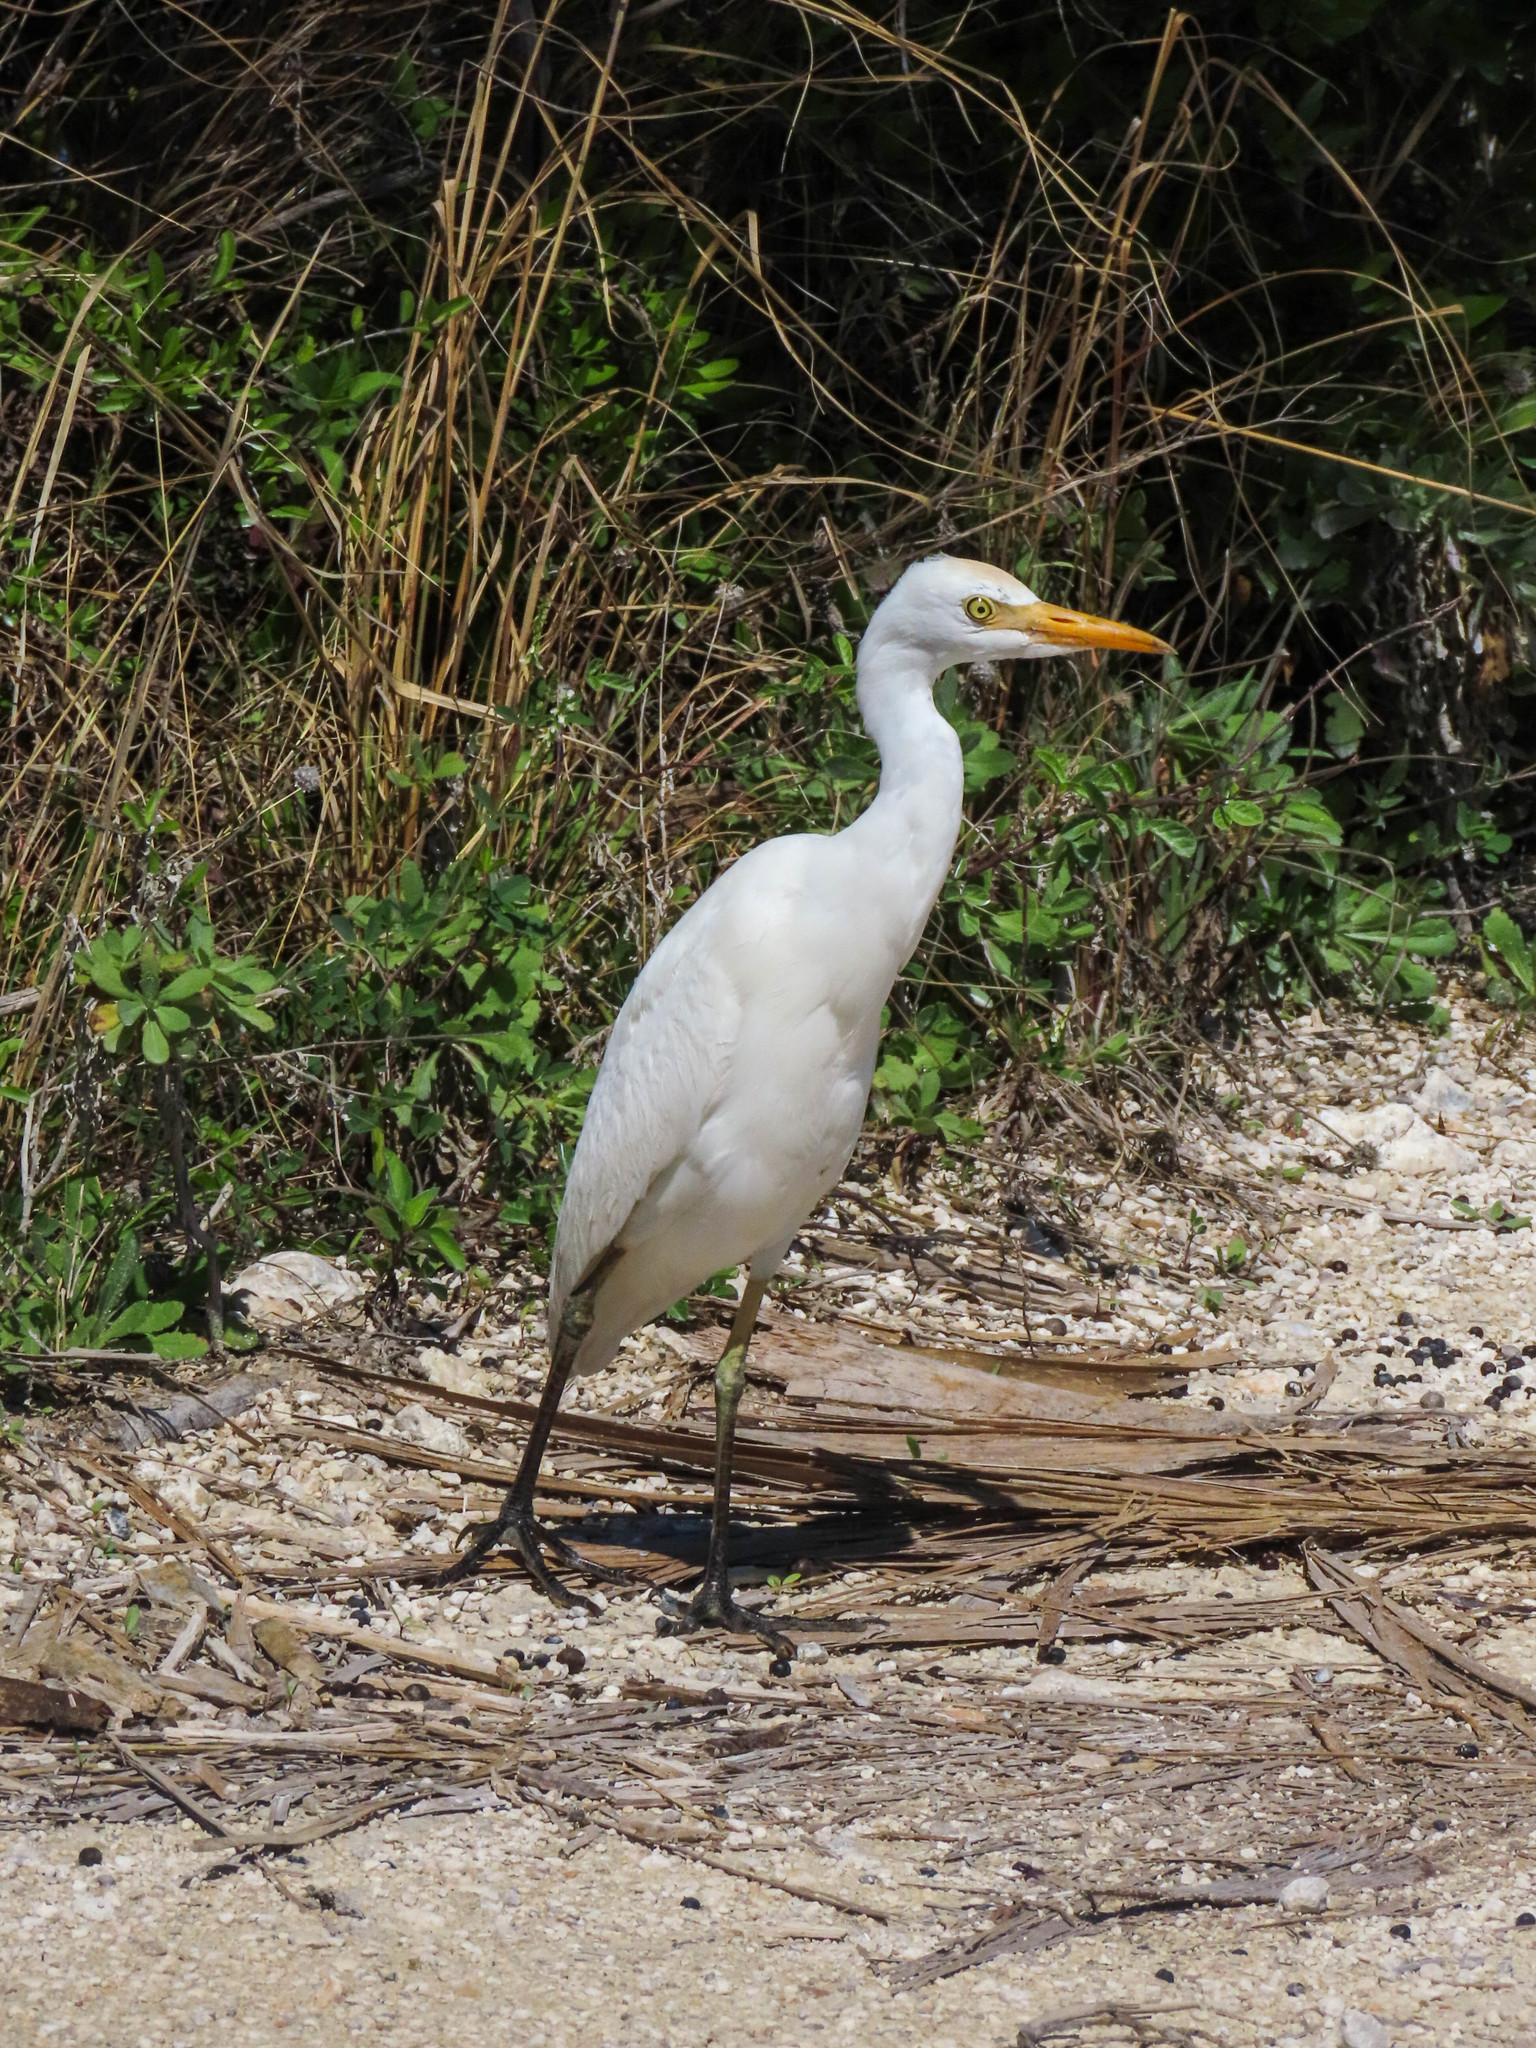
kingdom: Animalia
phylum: Chordata
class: Aves
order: Pelecaniformes
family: Ardeidae
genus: Bubulcus
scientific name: Bubulcus ibis
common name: Cattle egret
